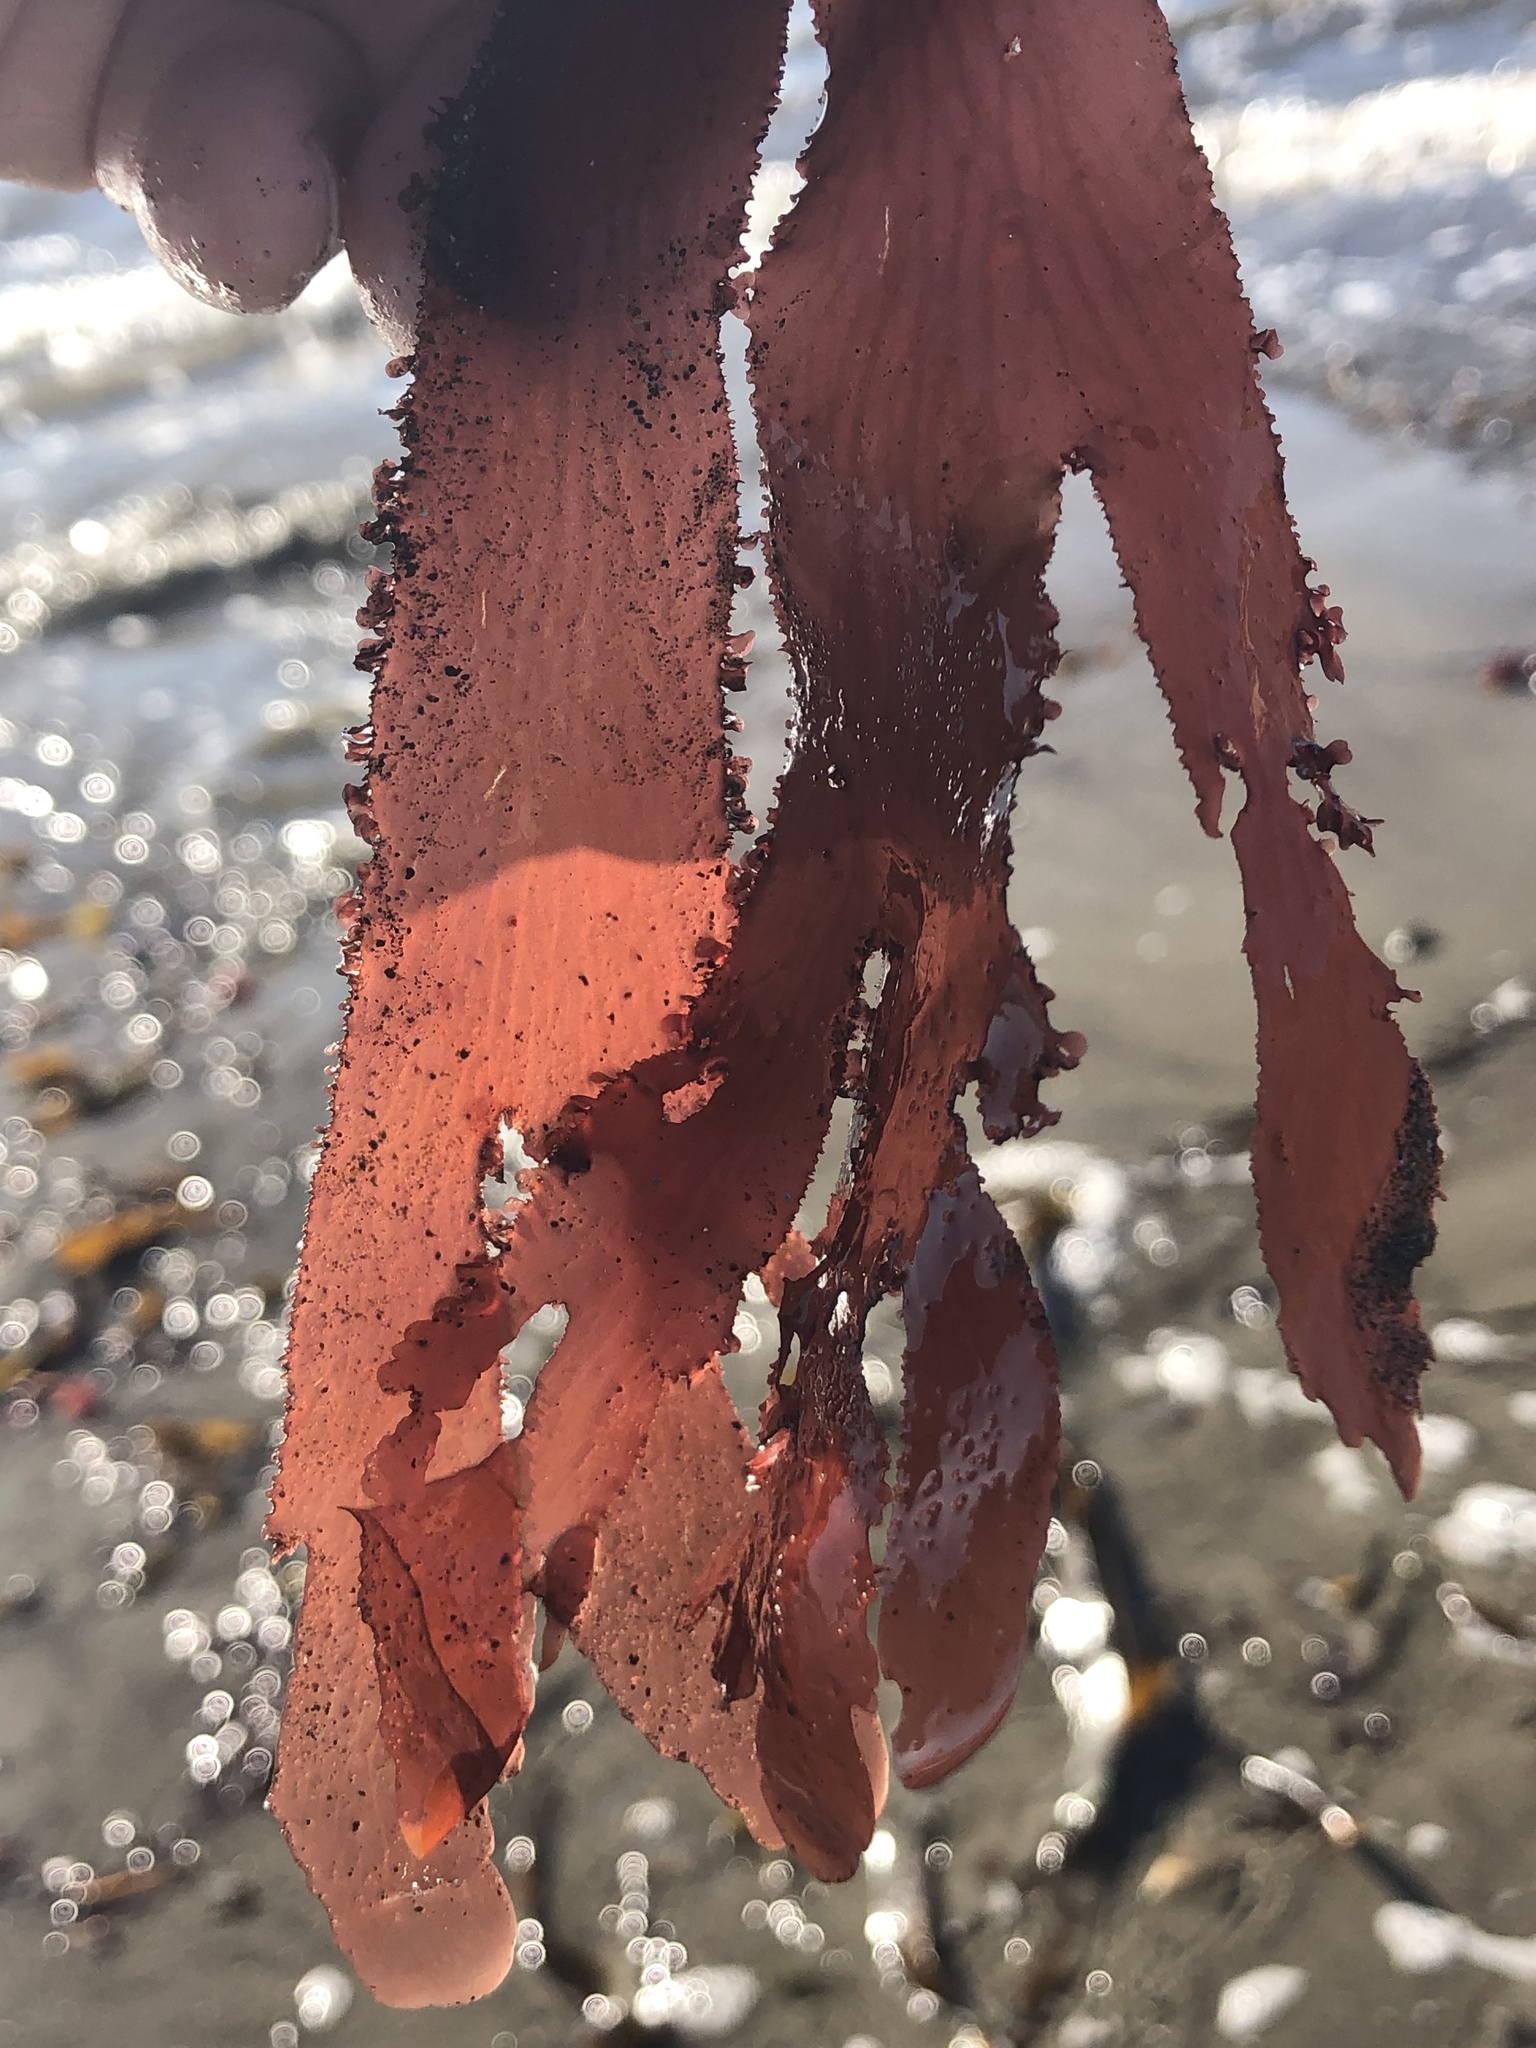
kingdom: Plantae
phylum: Rhodophyta
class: Florideophyceae
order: Ceramiales
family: Delesseriaceae
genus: Cryptopleura
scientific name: Cryptopleura ruprechtiana
